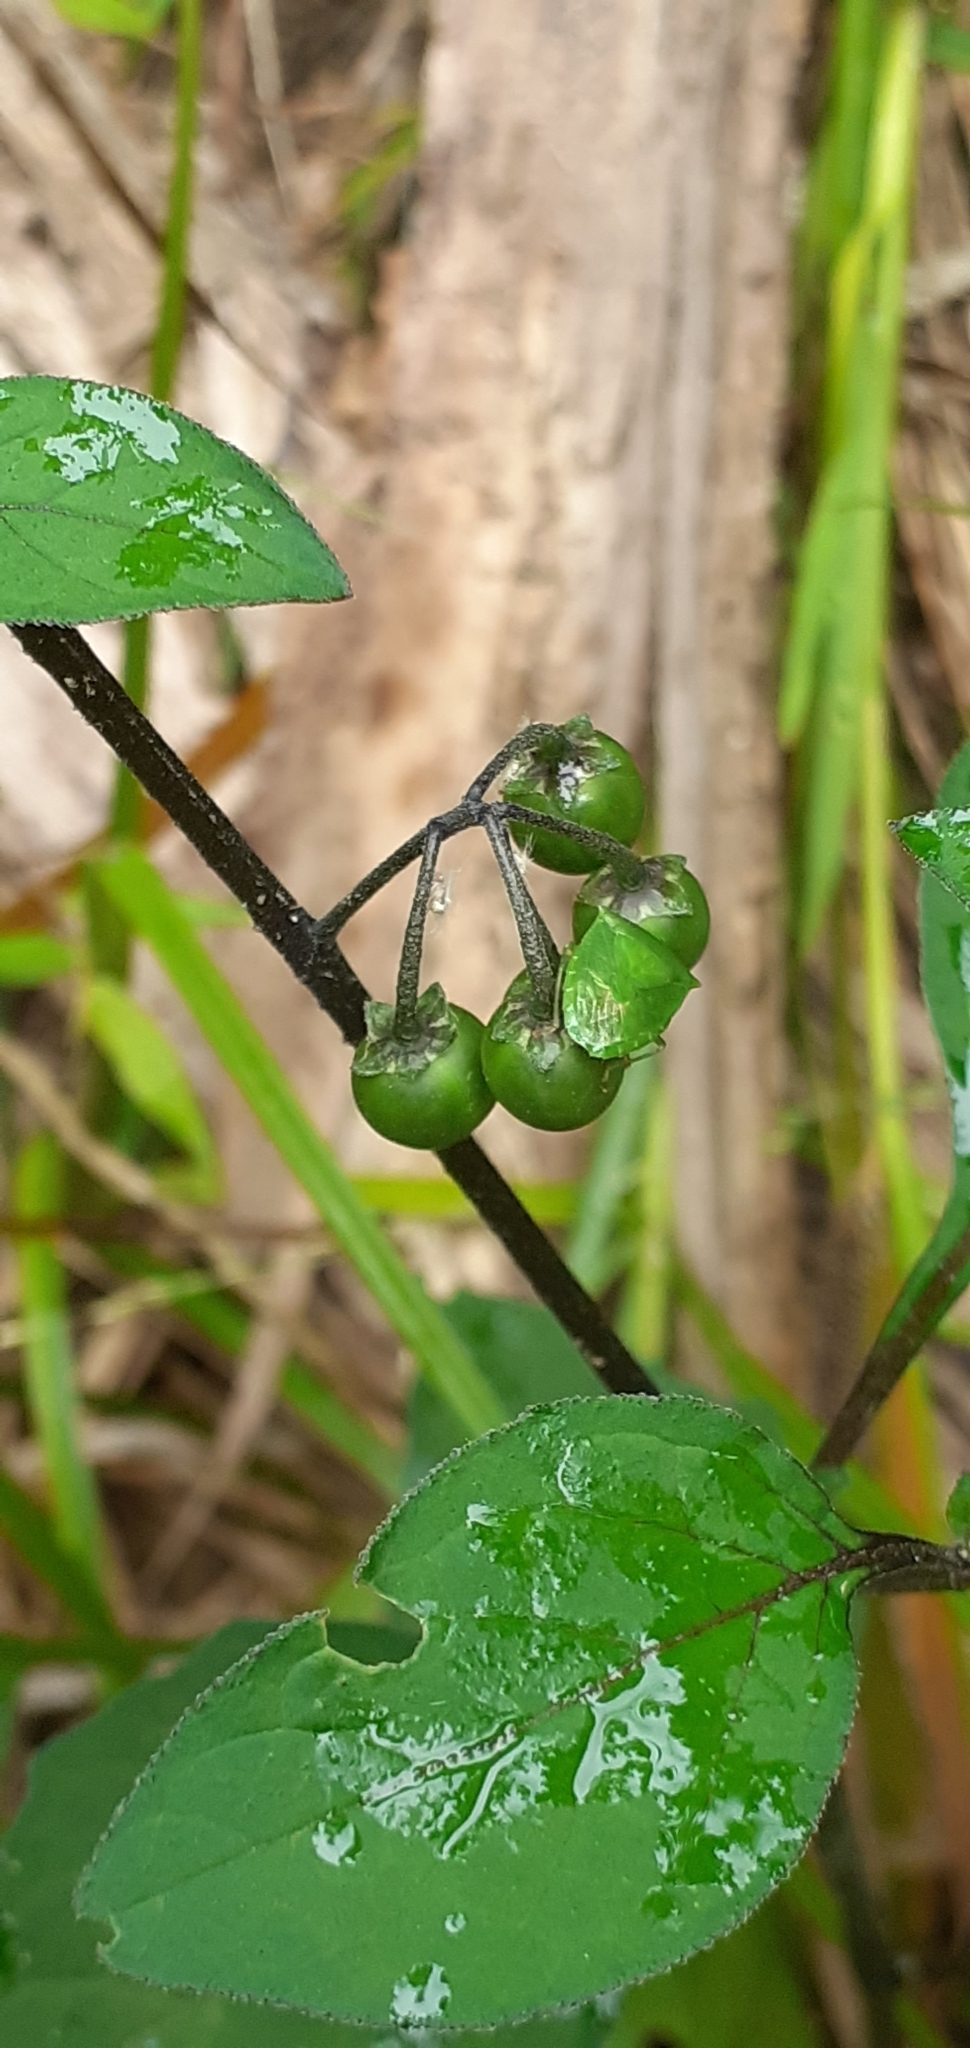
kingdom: Animalia
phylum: Arthropoda
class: Insecta
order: Hemiptera
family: Pentatomidae
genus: Cuspicona
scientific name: Cuspicona simplex
